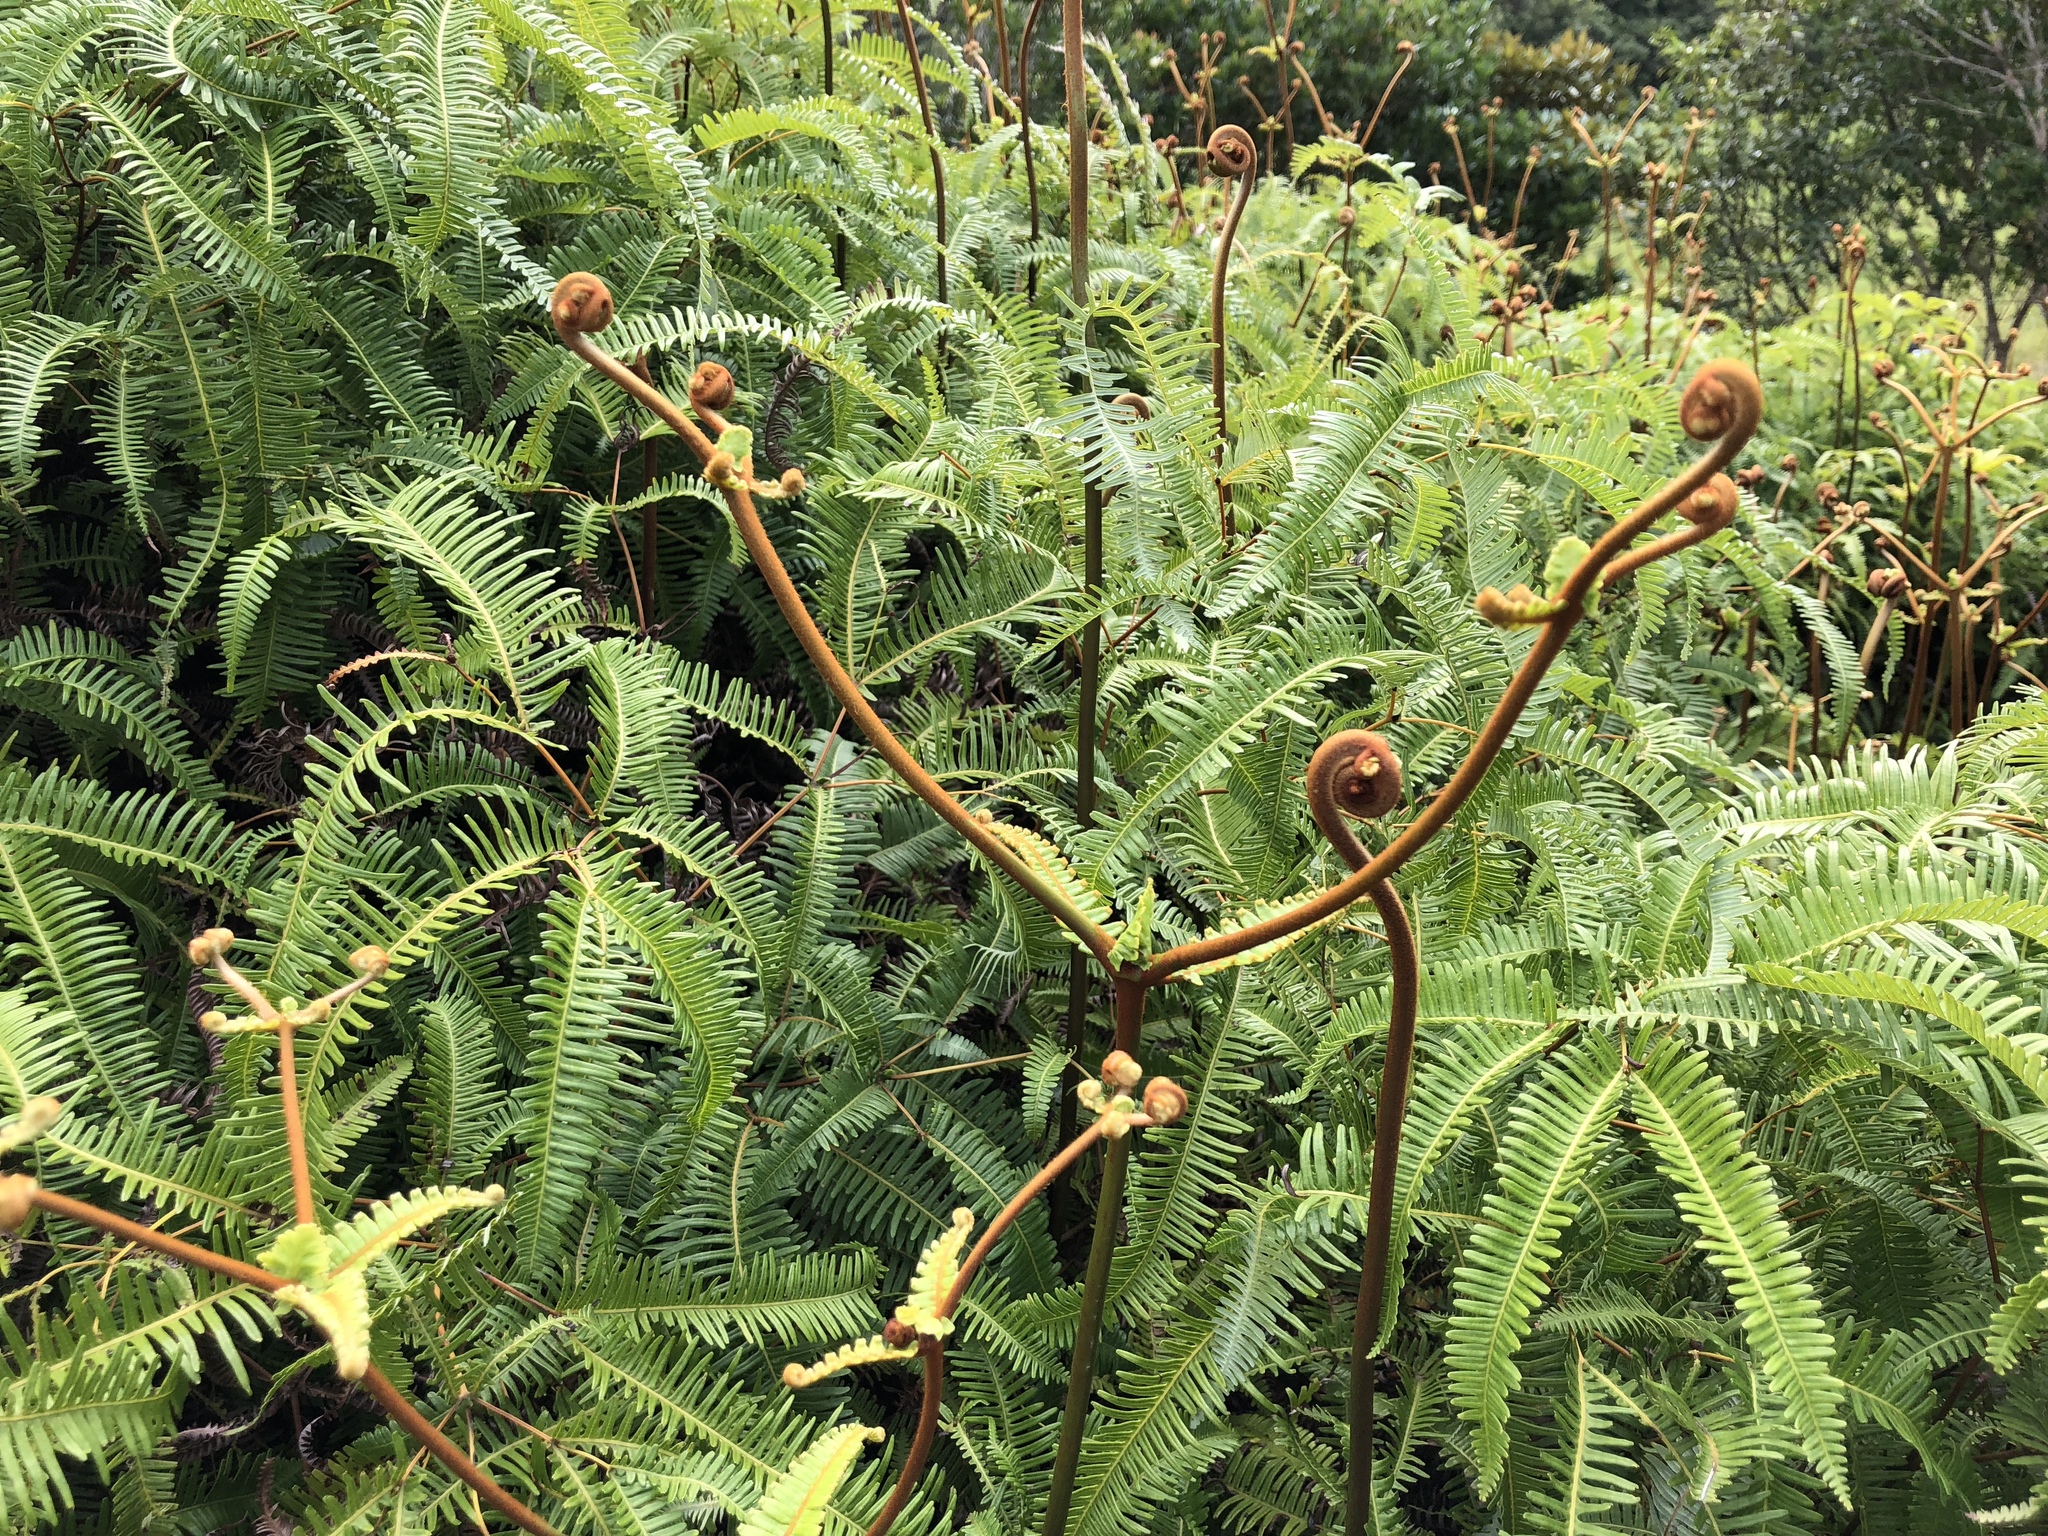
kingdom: Plantae
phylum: Tracheophyta
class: Polypodiopsida
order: Gleicheniales
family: Gleicheniaceae
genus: Dicranopteris
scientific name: Dicranopteris linearis
